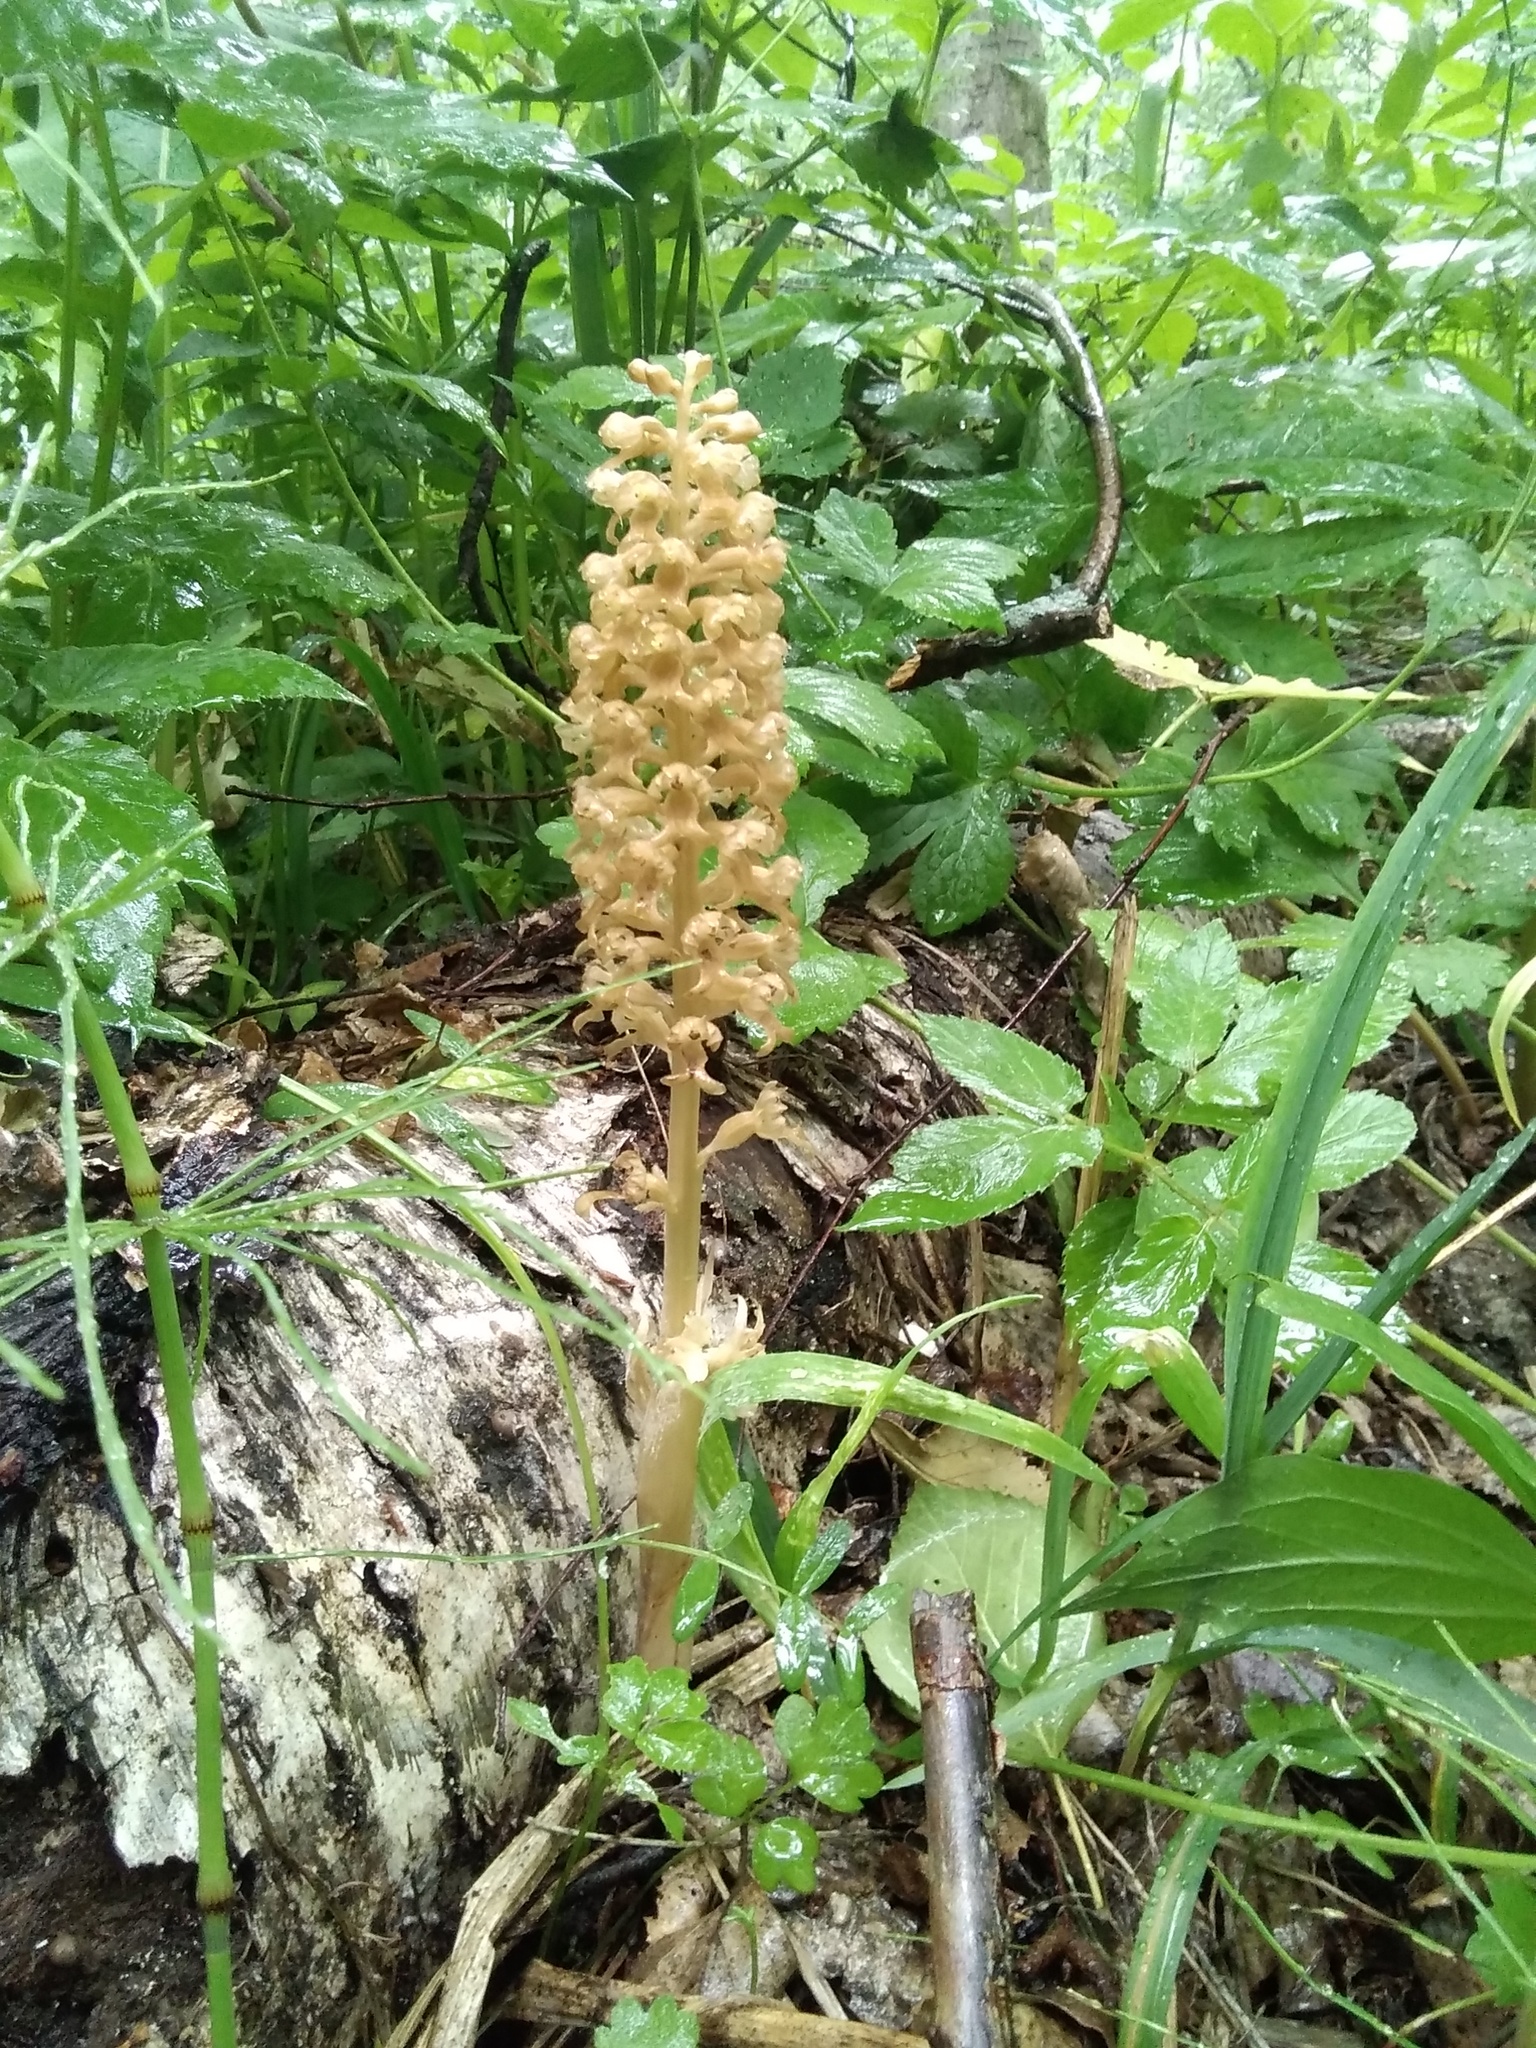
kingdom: Plantae
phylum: Tracheophyta
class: Liliopsida
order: Asparagales
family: Orchidaceae
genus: Neottia
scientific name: Neottia nidus-avis
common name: Bird's-nest orchid
